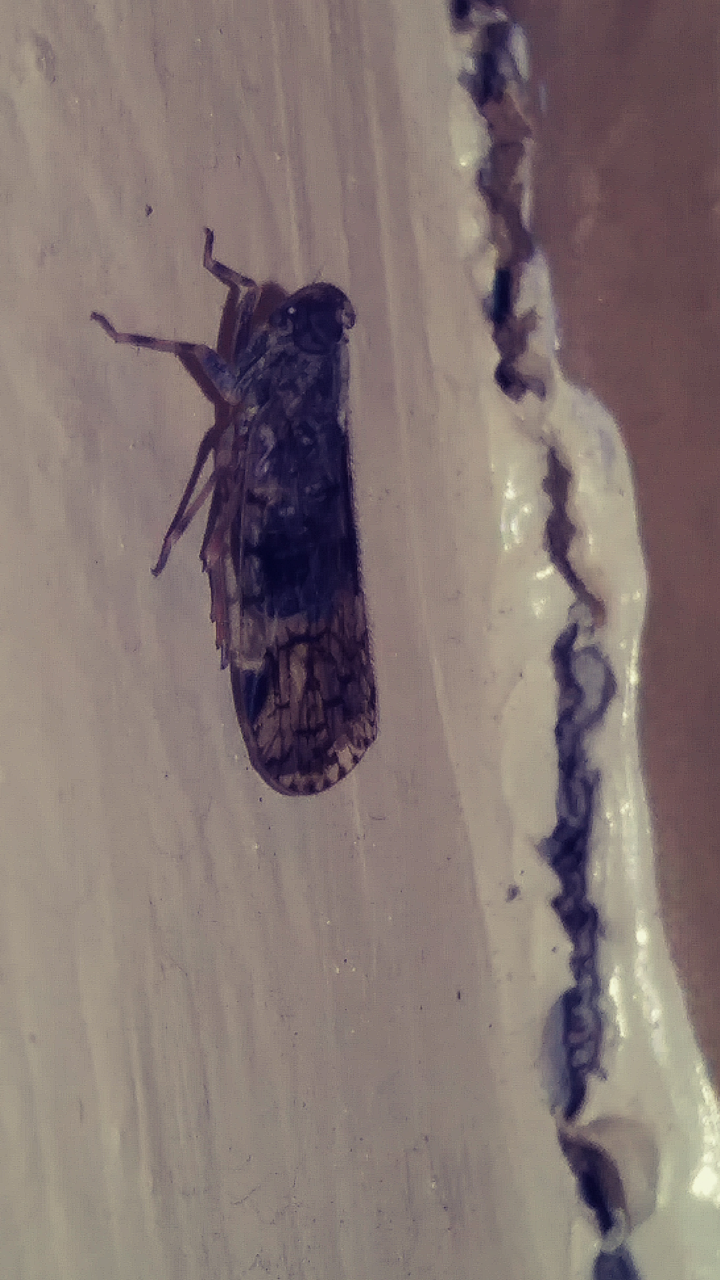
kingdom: Animalia
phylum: Arthropoda
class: Insecta
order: Hemiptera
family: Cixiidae
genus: Melanoliarus
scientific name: Melanoliarus placitus
